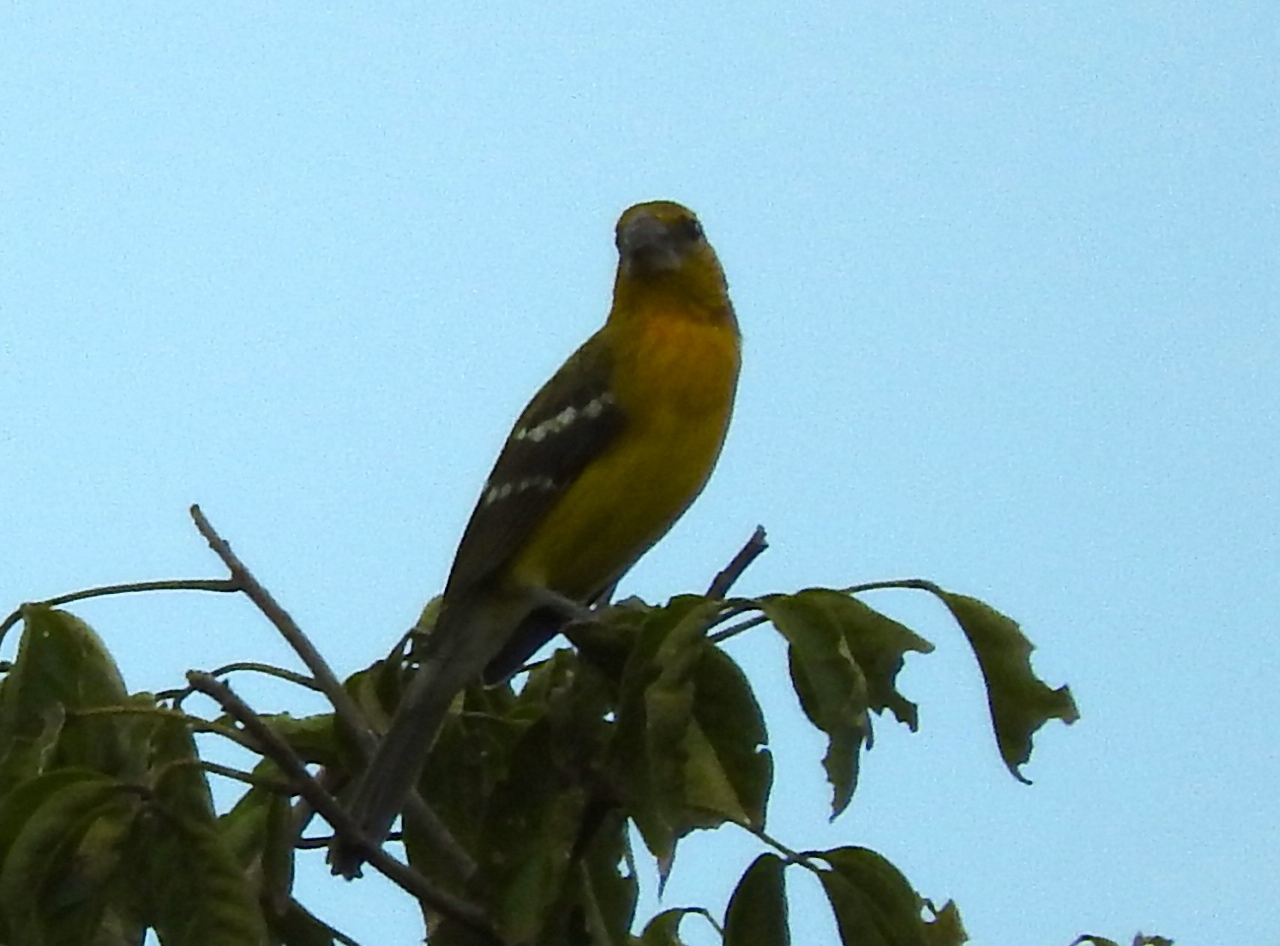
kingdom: Animalia
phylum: Chordata
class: Aves
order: Passeriformes
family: Cardinalidae
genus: Pheucticus
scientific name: Pheucticus chrysopeplus
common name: Yellow grosbeak
